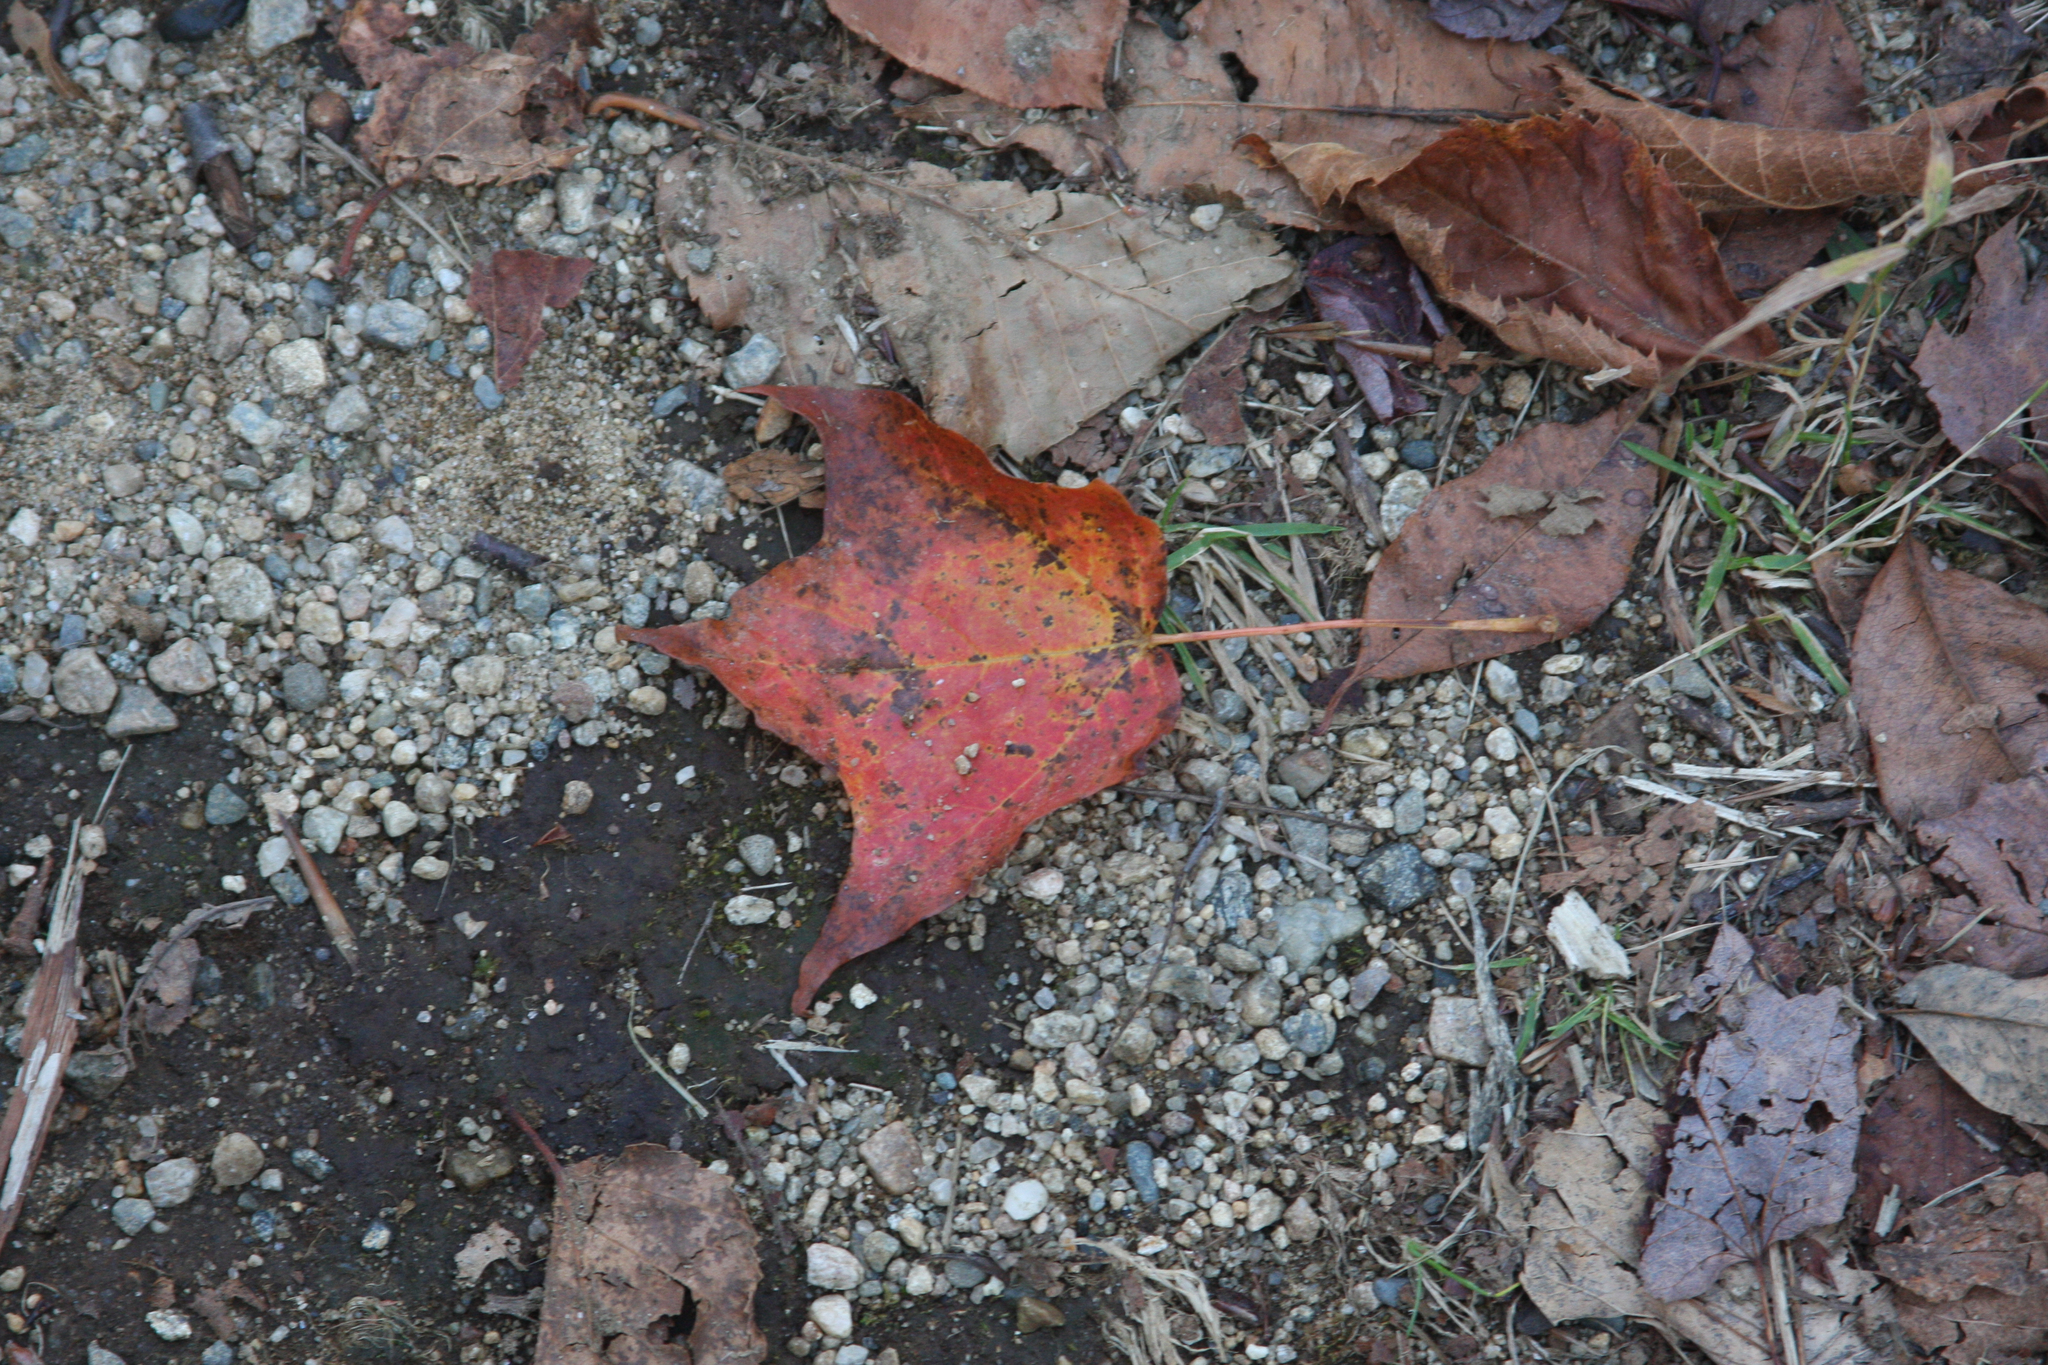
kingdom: Plantae
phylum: Tracheophyta
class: Magnoliopsida
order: Sapindales
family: Sapindaceae
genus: Acer
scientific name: Acer rubrum
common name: Red maple
